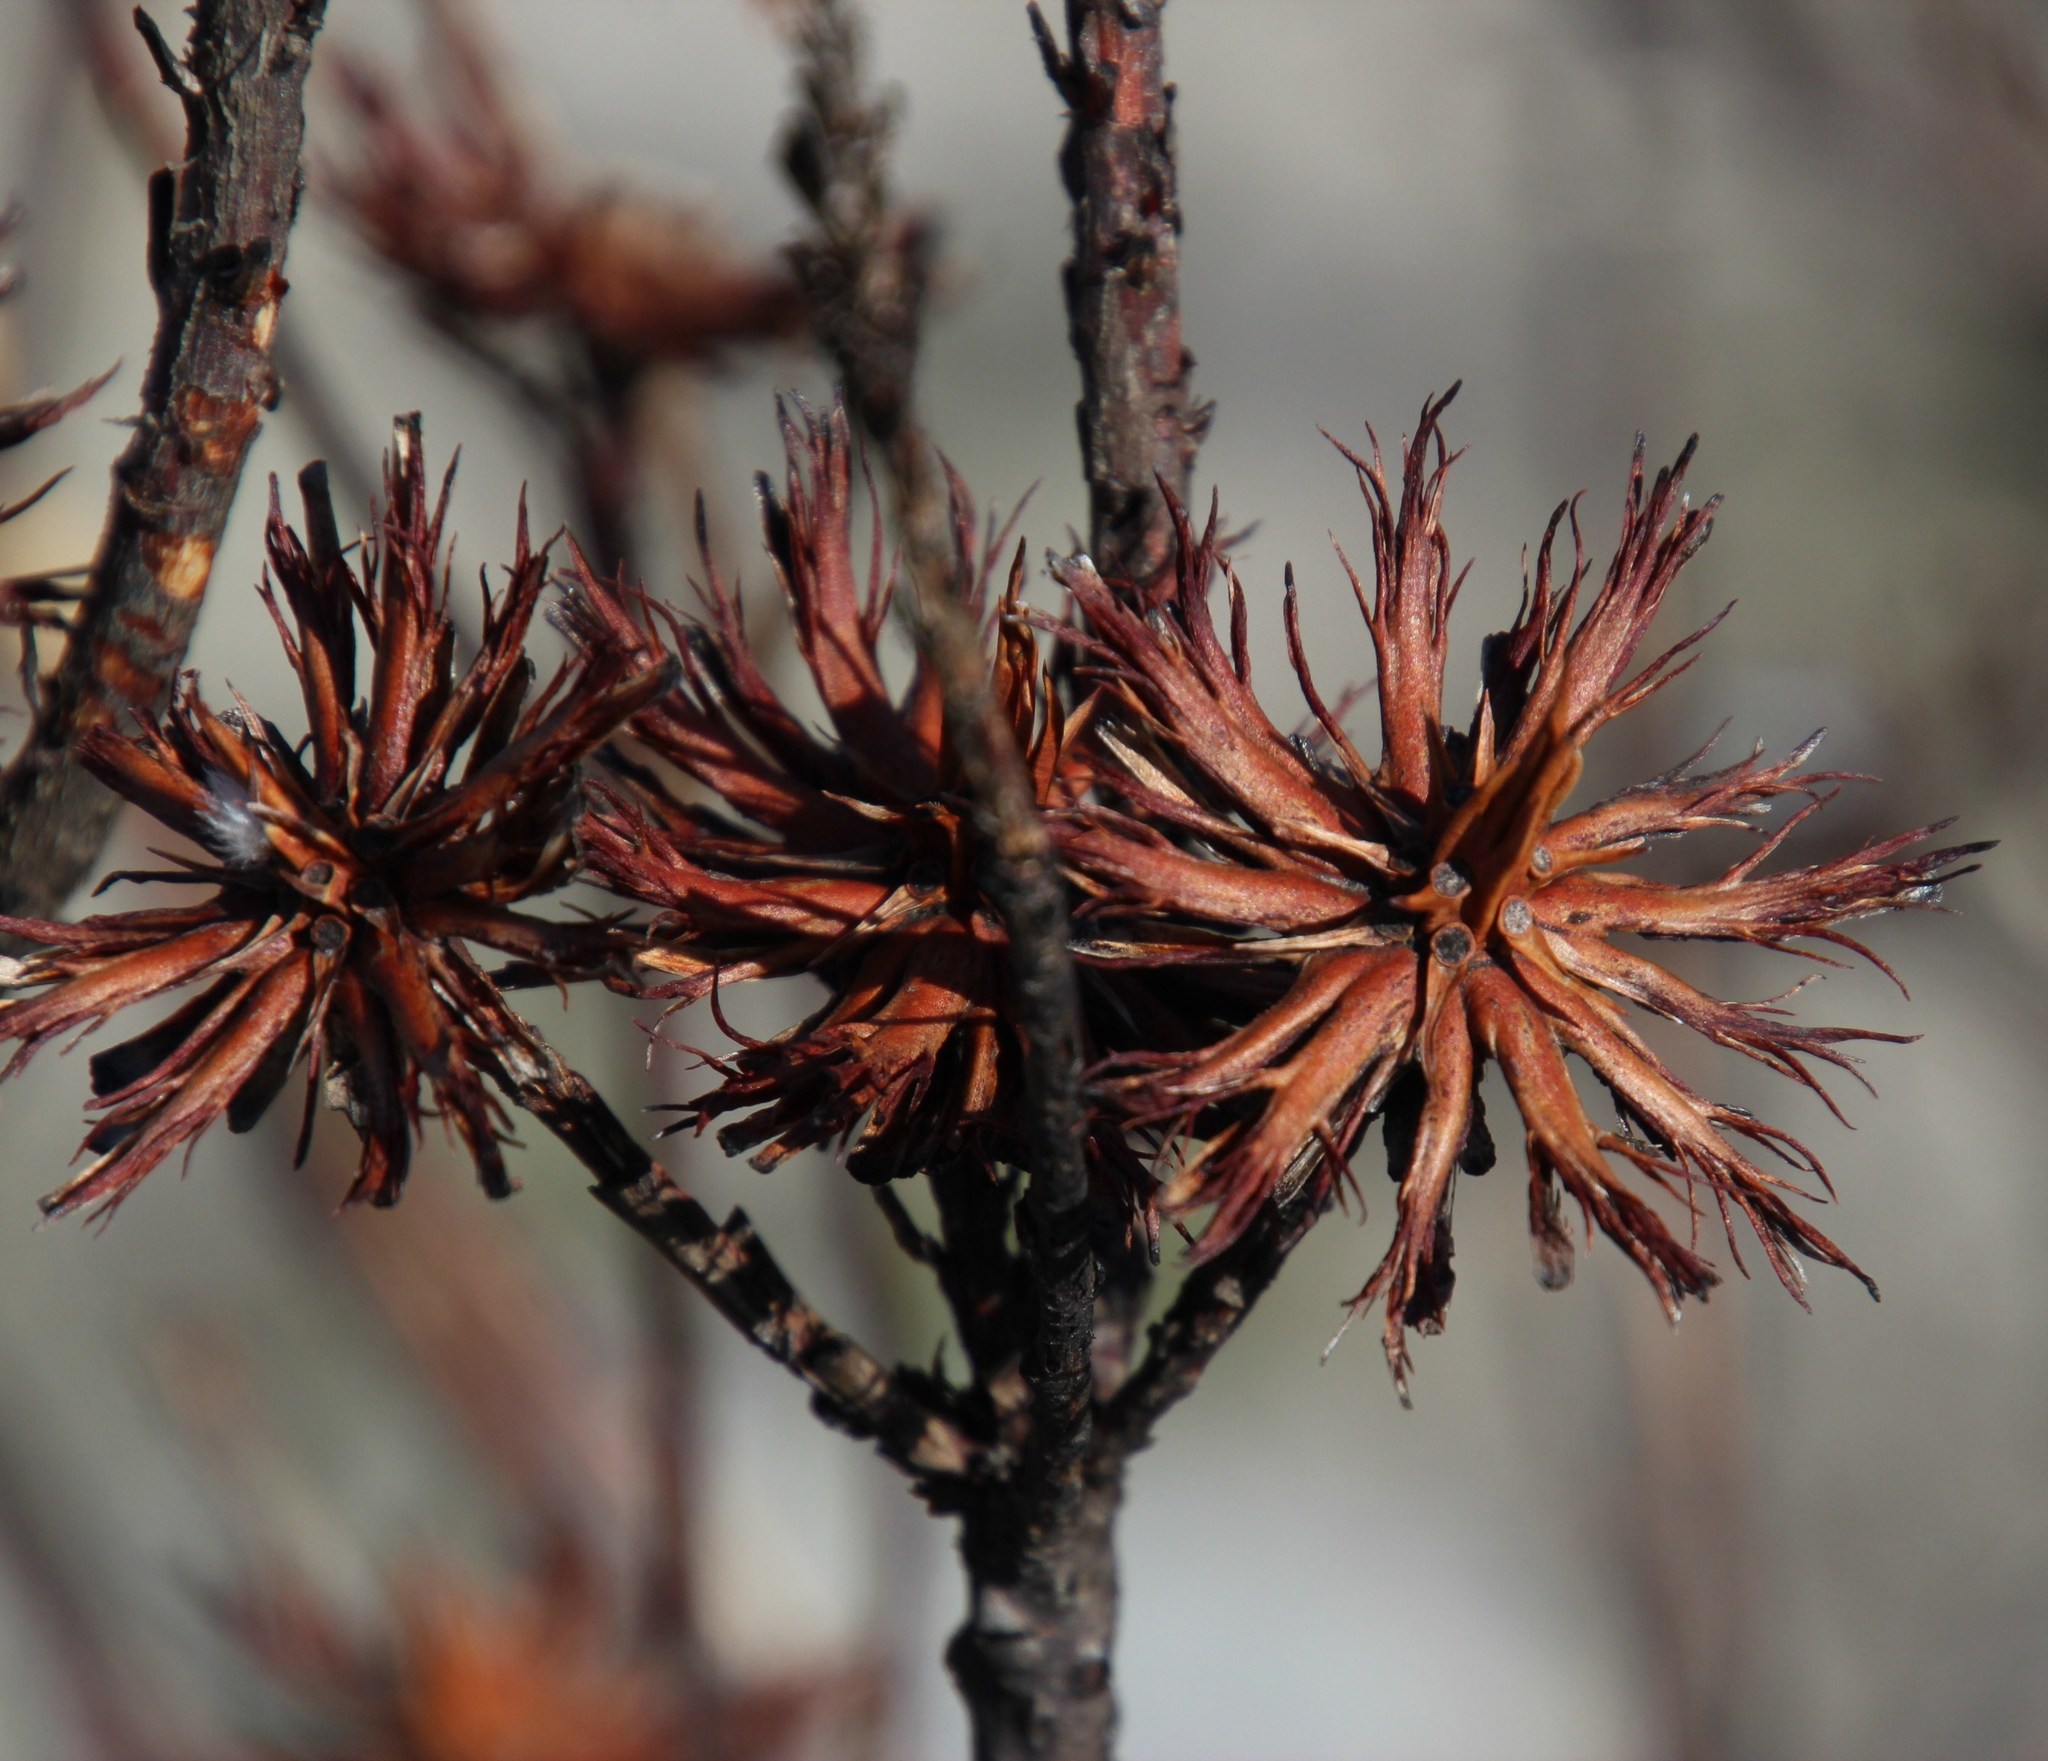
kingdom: Plantae
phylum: Tracheophyta
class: Magnoliopsida
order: Proteales
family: Proteaceae
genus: Aulax
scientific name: Aulax umbellata
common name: Broad-leaf featherbush
